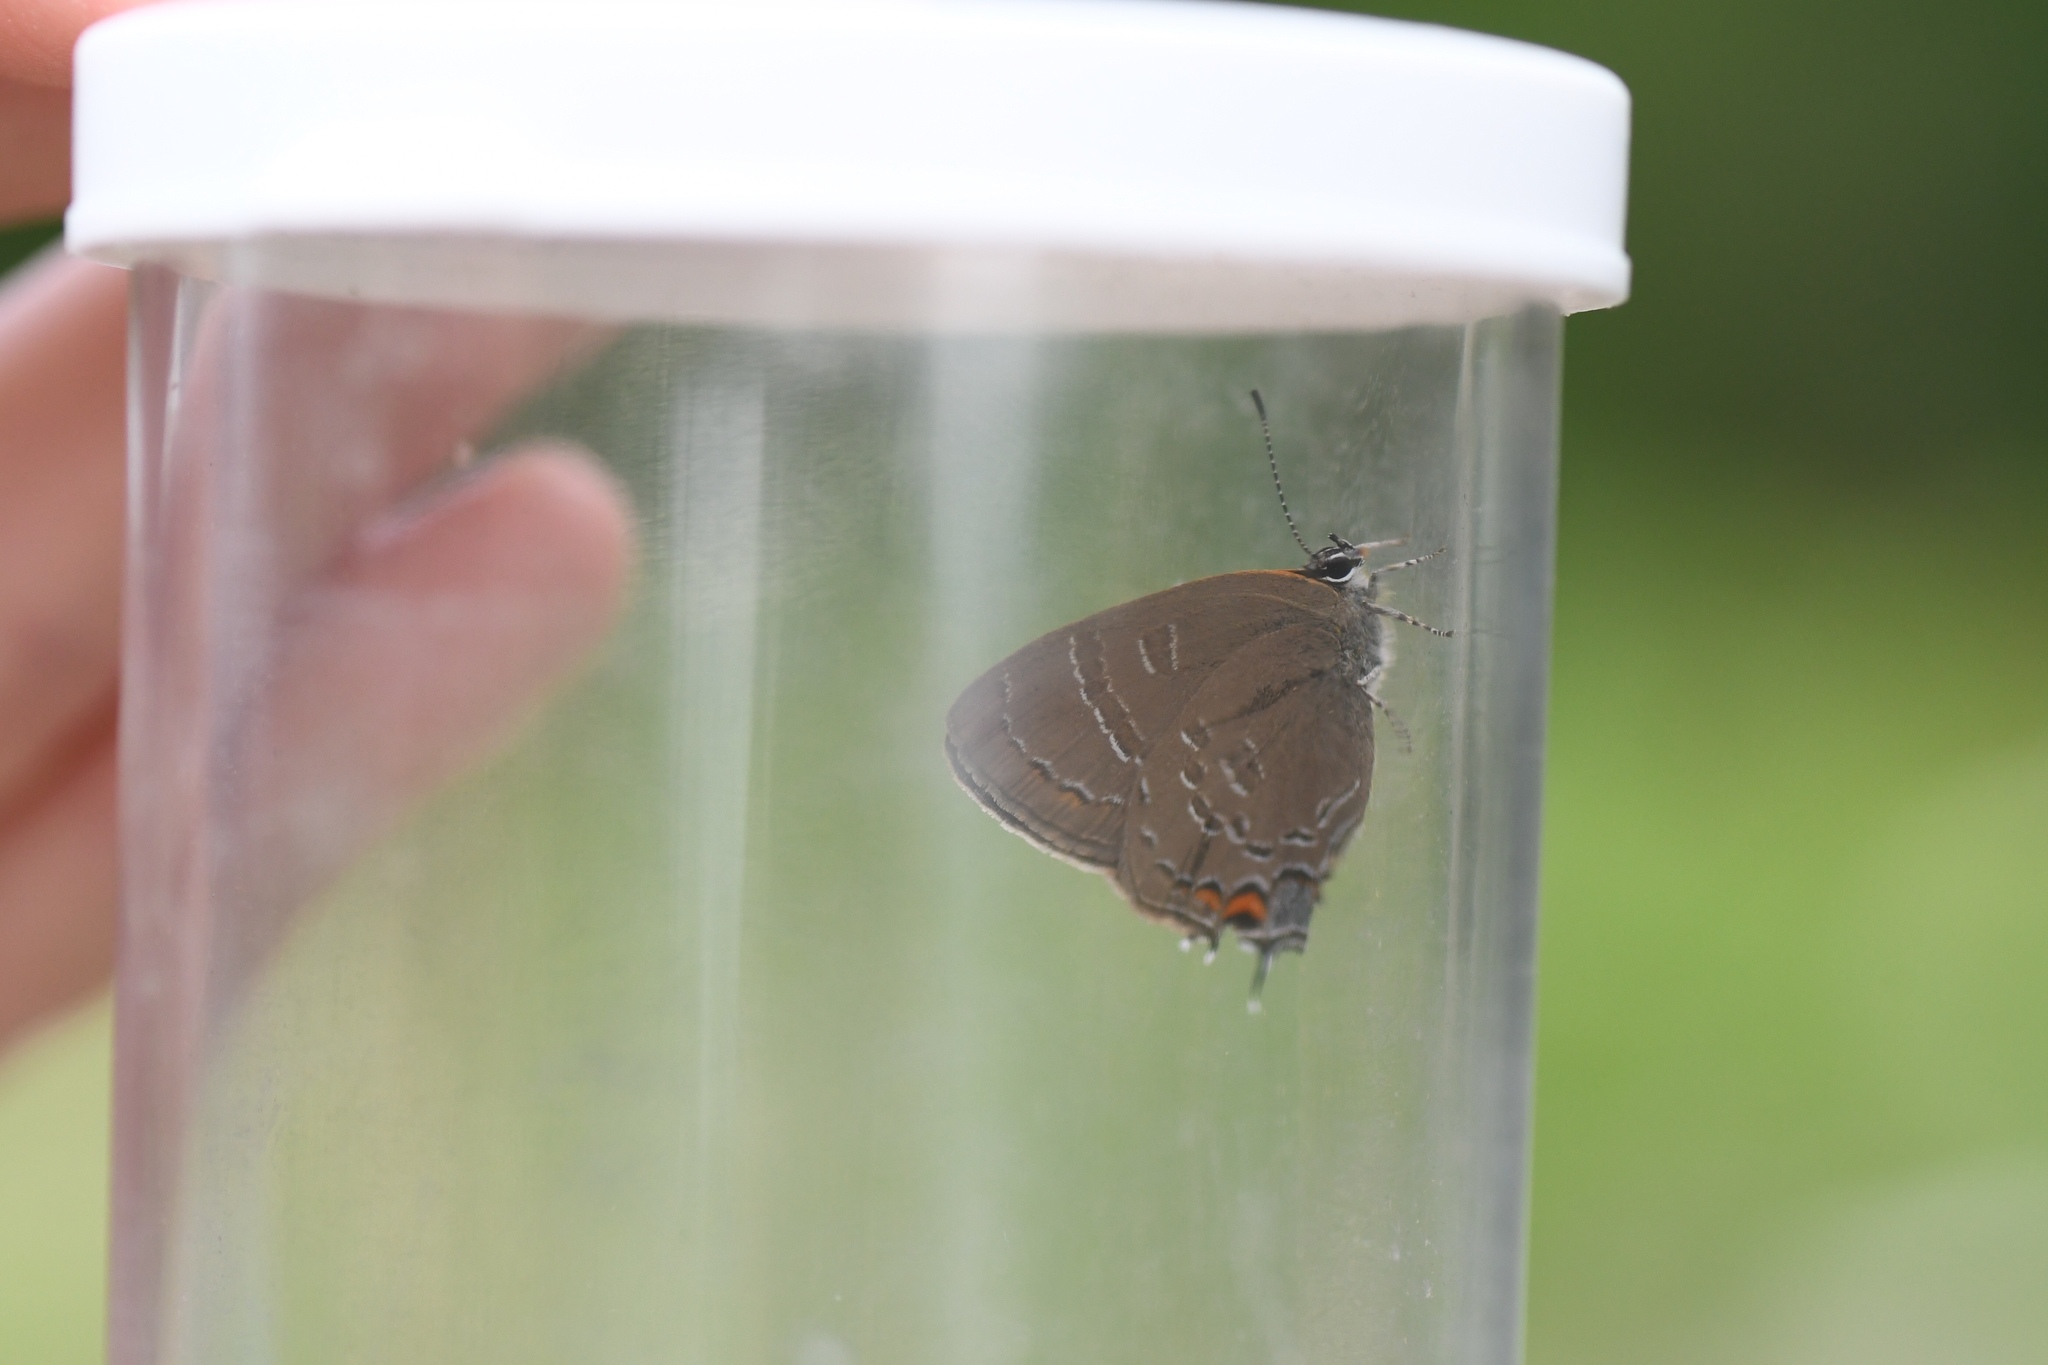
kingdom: Animalia
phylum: Arthropoda
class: Insecta
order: Lepidoptera
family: Lycaenidae
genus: Satyrium
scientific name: Satyrium calanus
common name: Banded hairstreak
